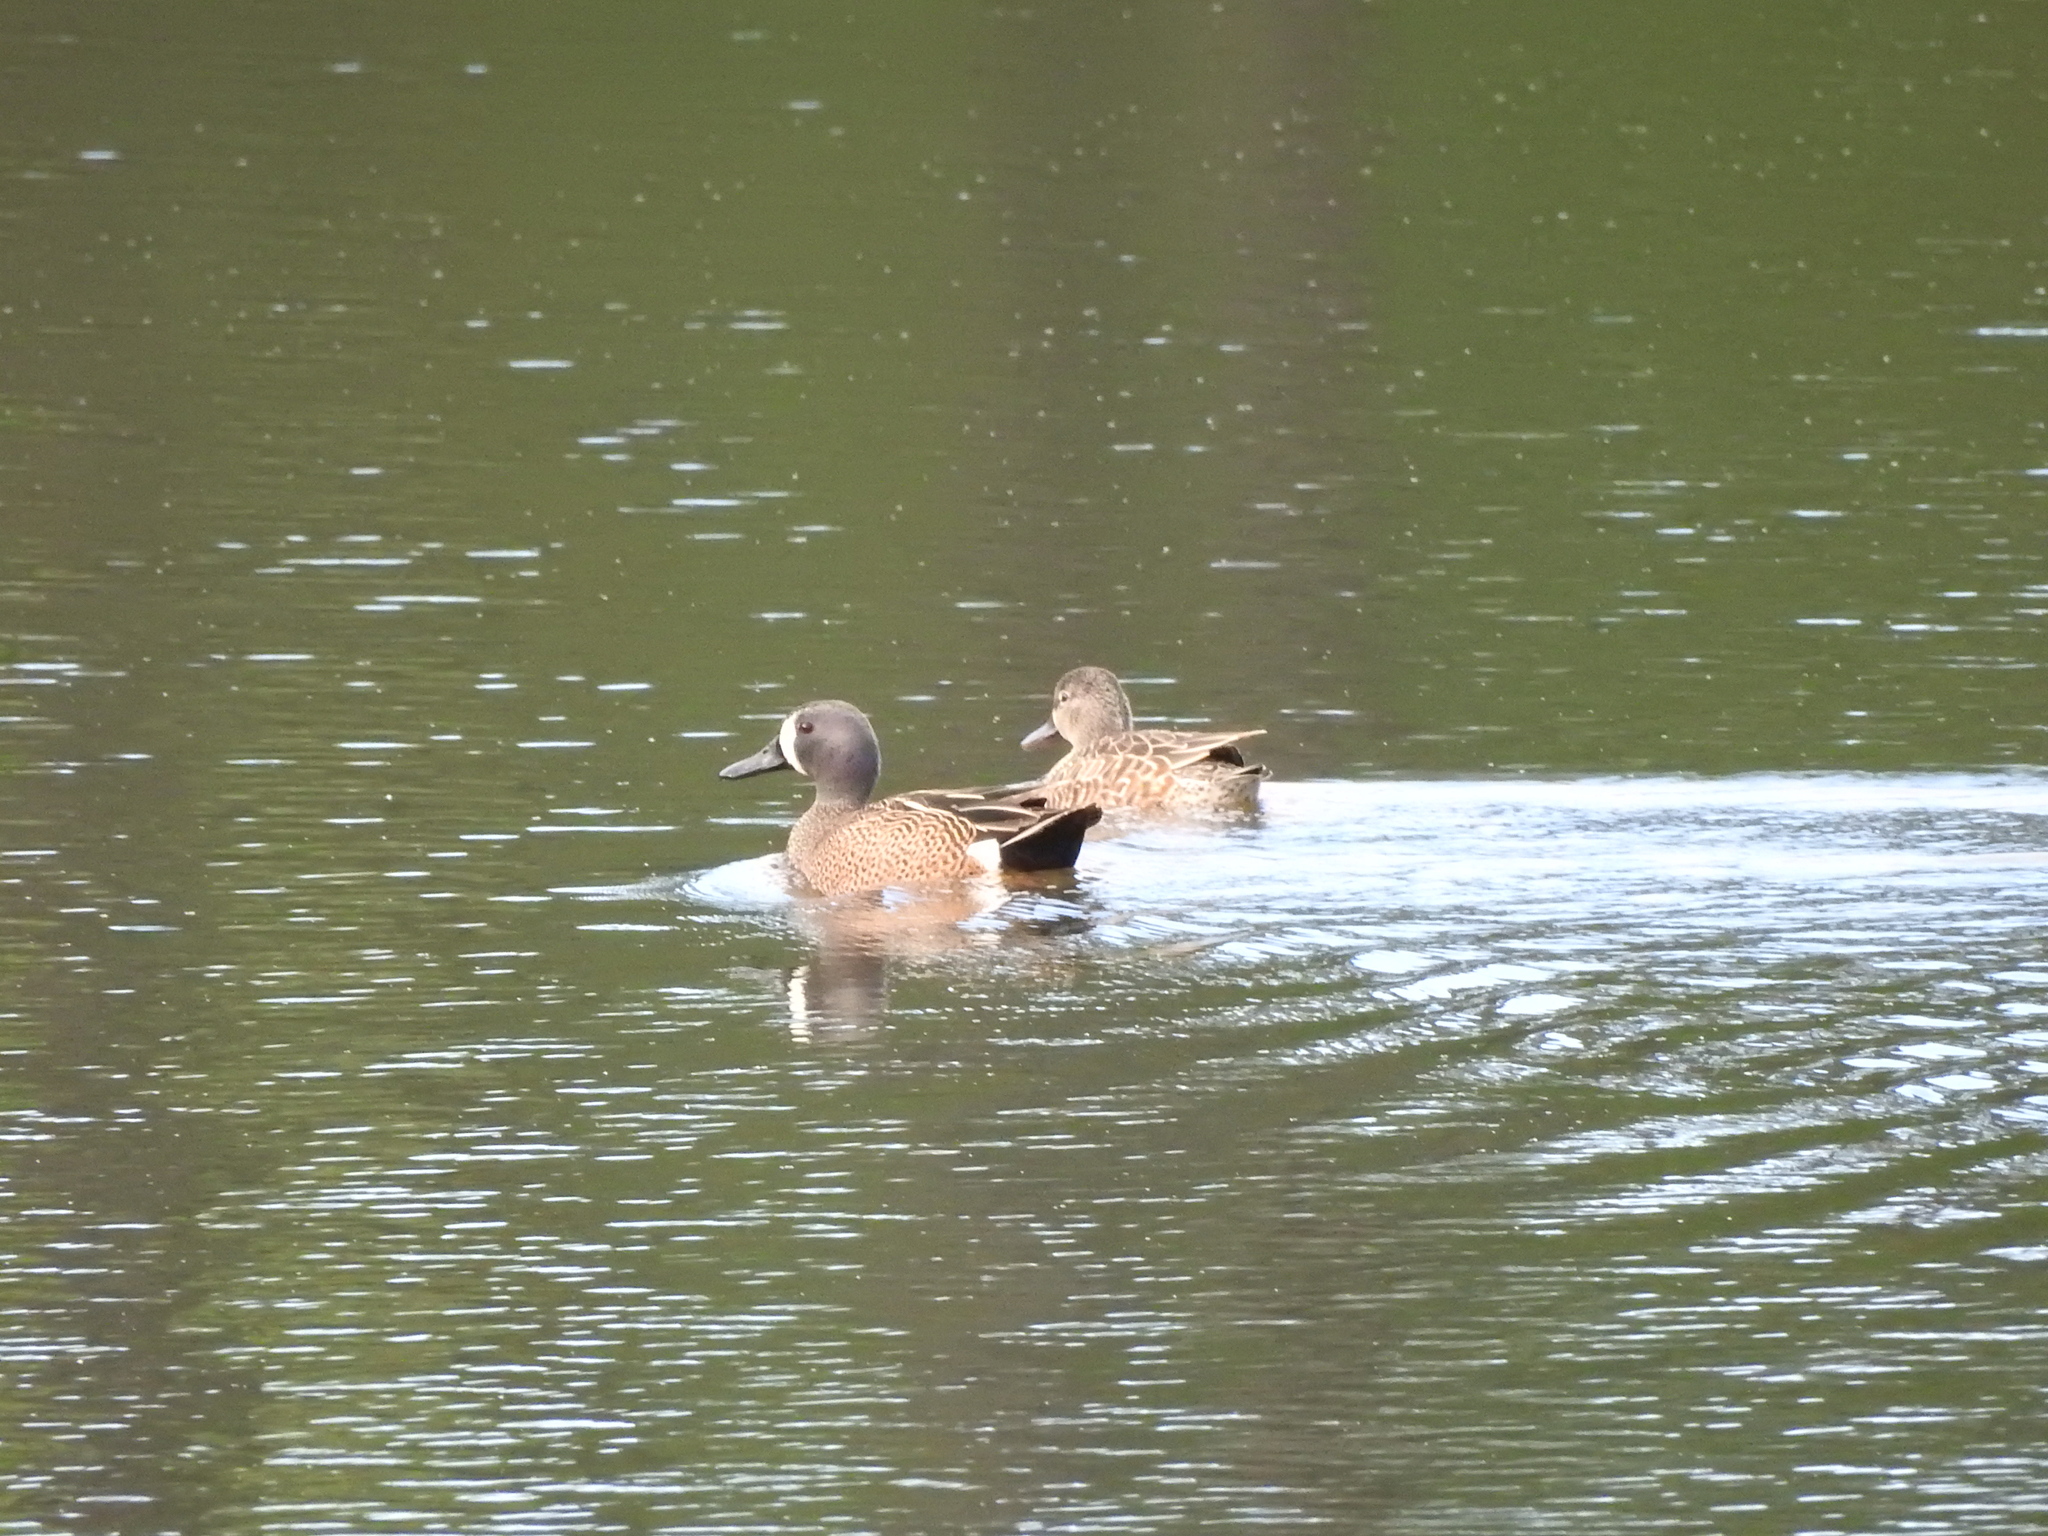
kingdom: Animalia
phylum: Chordata
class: Aves
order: Anseriformes
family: Anatidae
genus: Spatula
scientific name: Spatula discors
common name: Blue-winged teal
